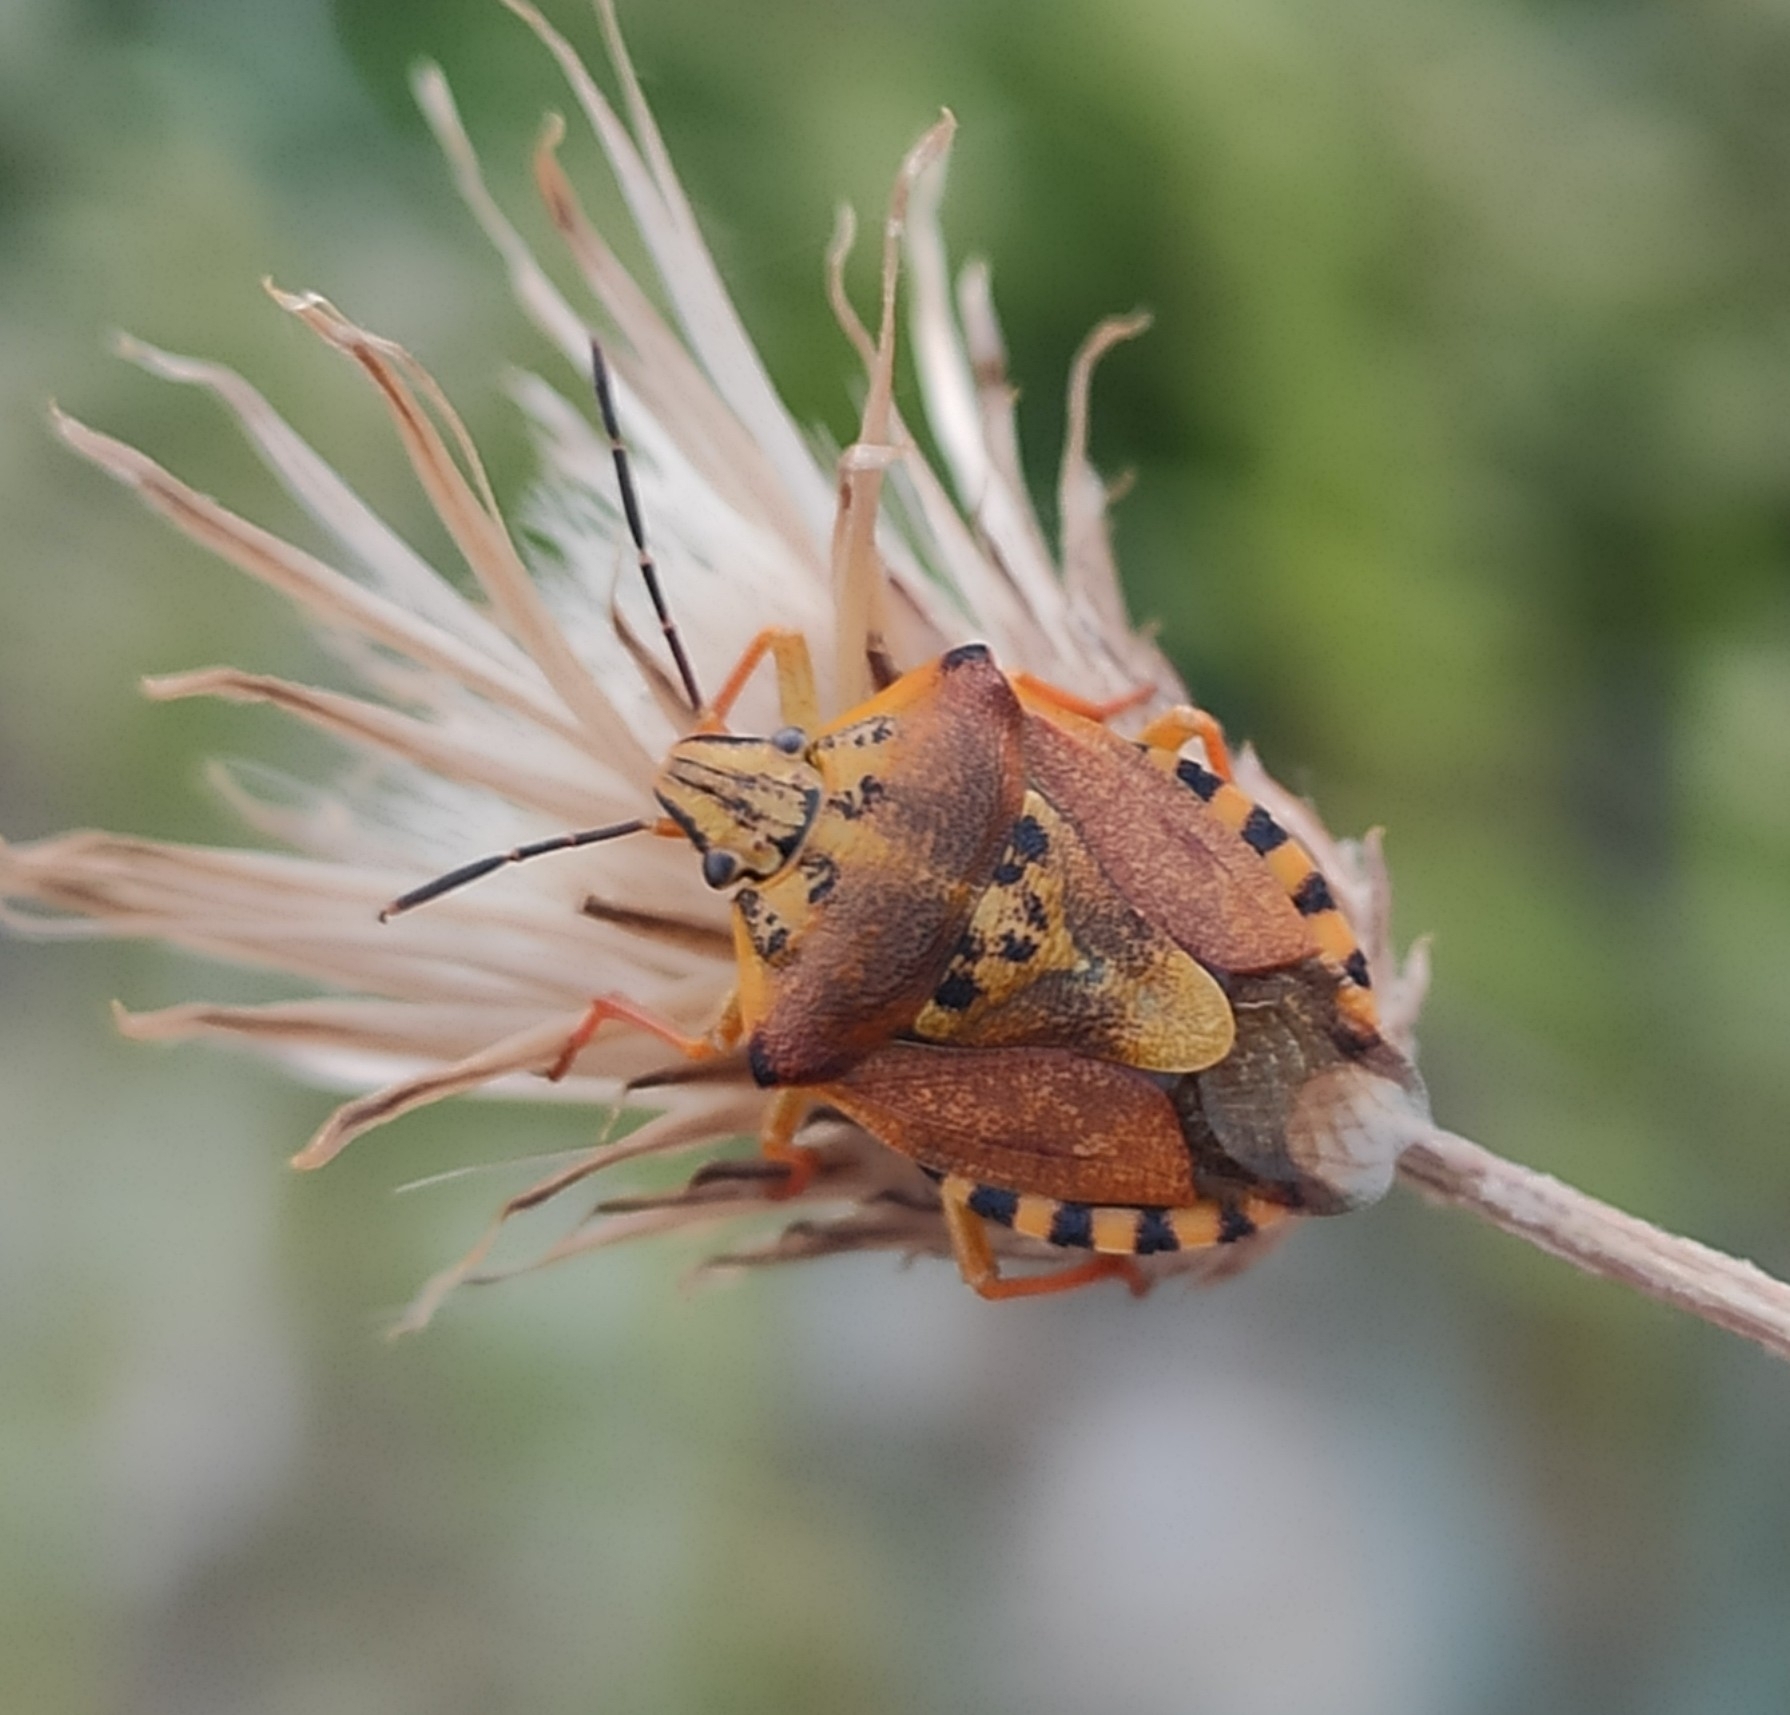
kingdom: Animalia
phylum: Arthropoda
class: Insecta
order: Hemiptera
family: Pentatomidae
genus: Carpocoris
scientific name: Carpocoris purpureipennis
